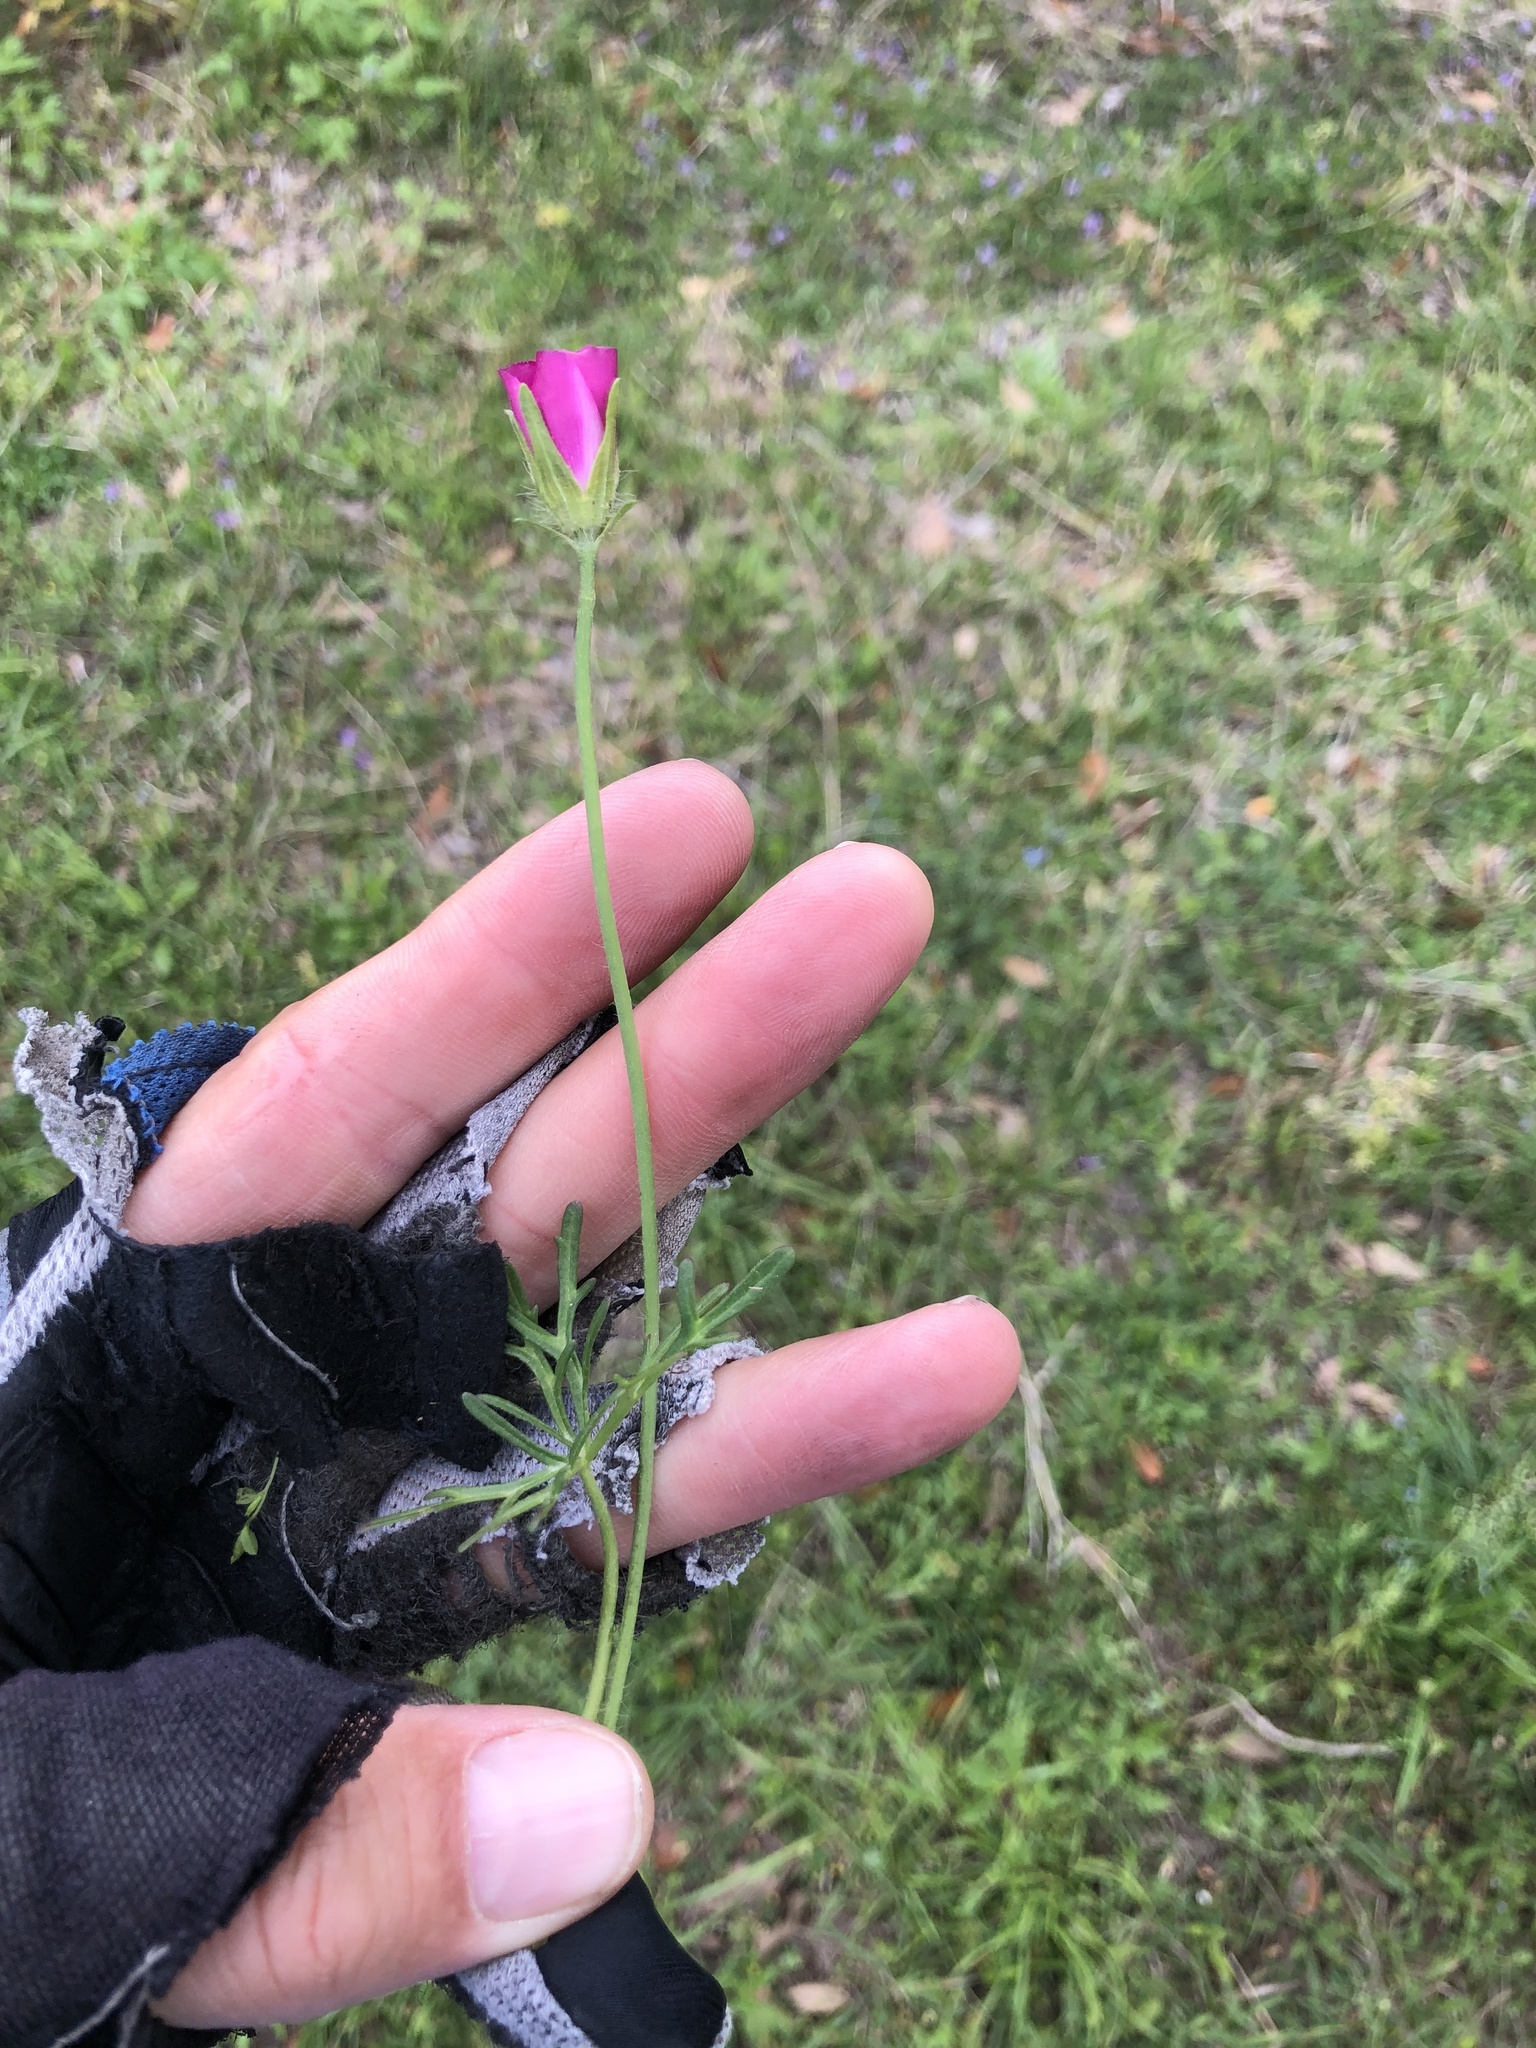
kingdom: Plantae
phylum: Tracheophyta
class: Magnoliopsida
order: Malvales
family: Malvaceae
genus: Callirhoe
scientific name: Callirhoe involucrata
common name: Purple poppy-mallow
